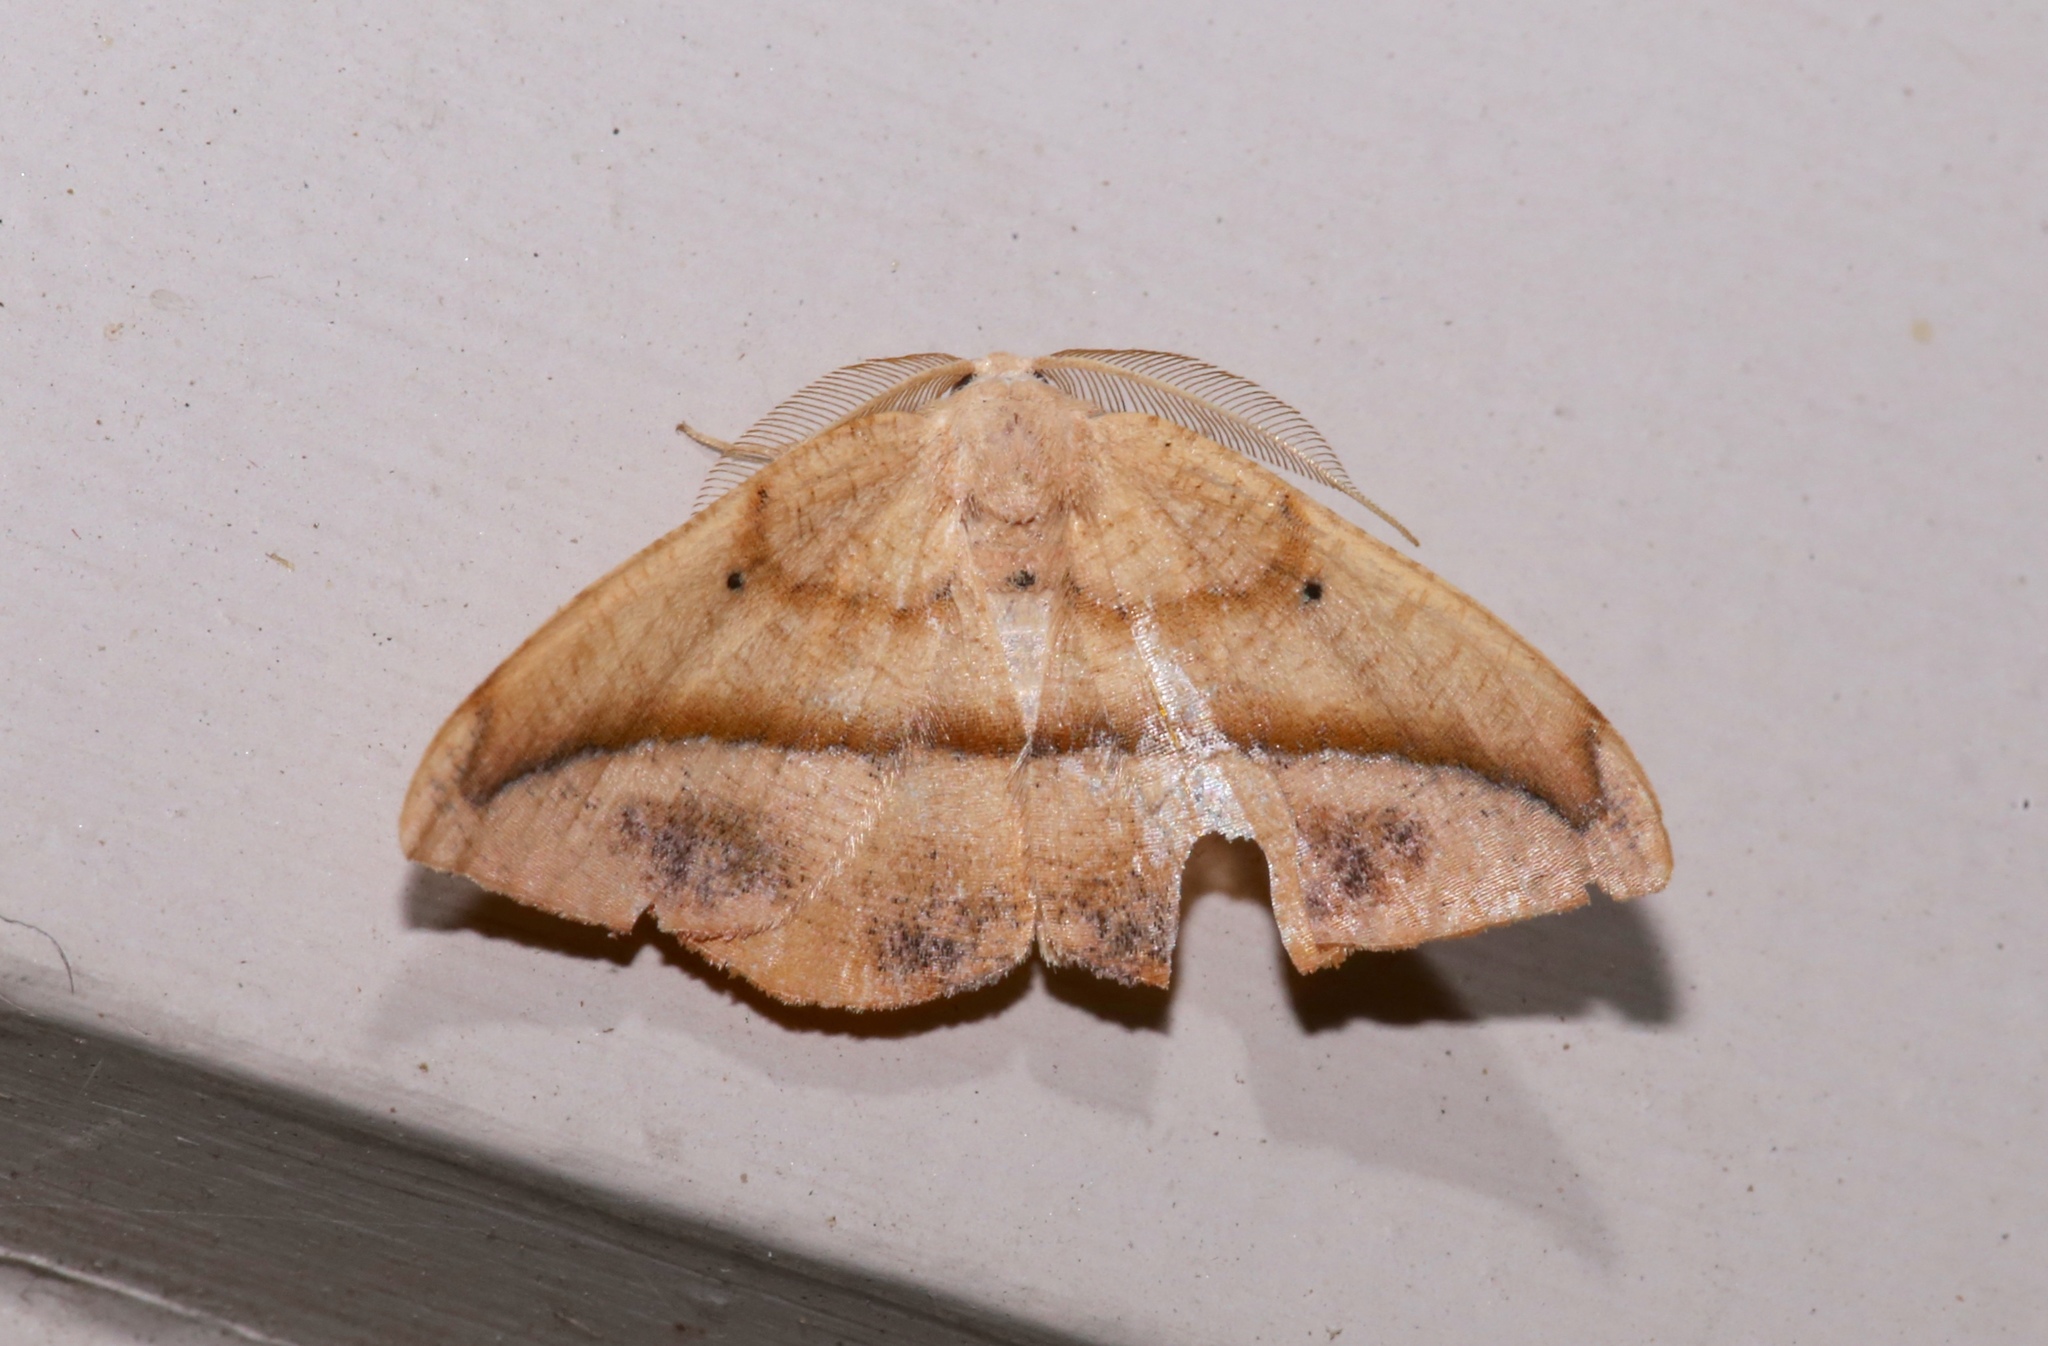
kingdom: Animalia
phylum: Arthropoda
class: Insecta
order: Lepidoptera
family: Geometridae
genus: Patalene
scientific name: Patalene olyzonaria
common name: Juniper geometer moth
